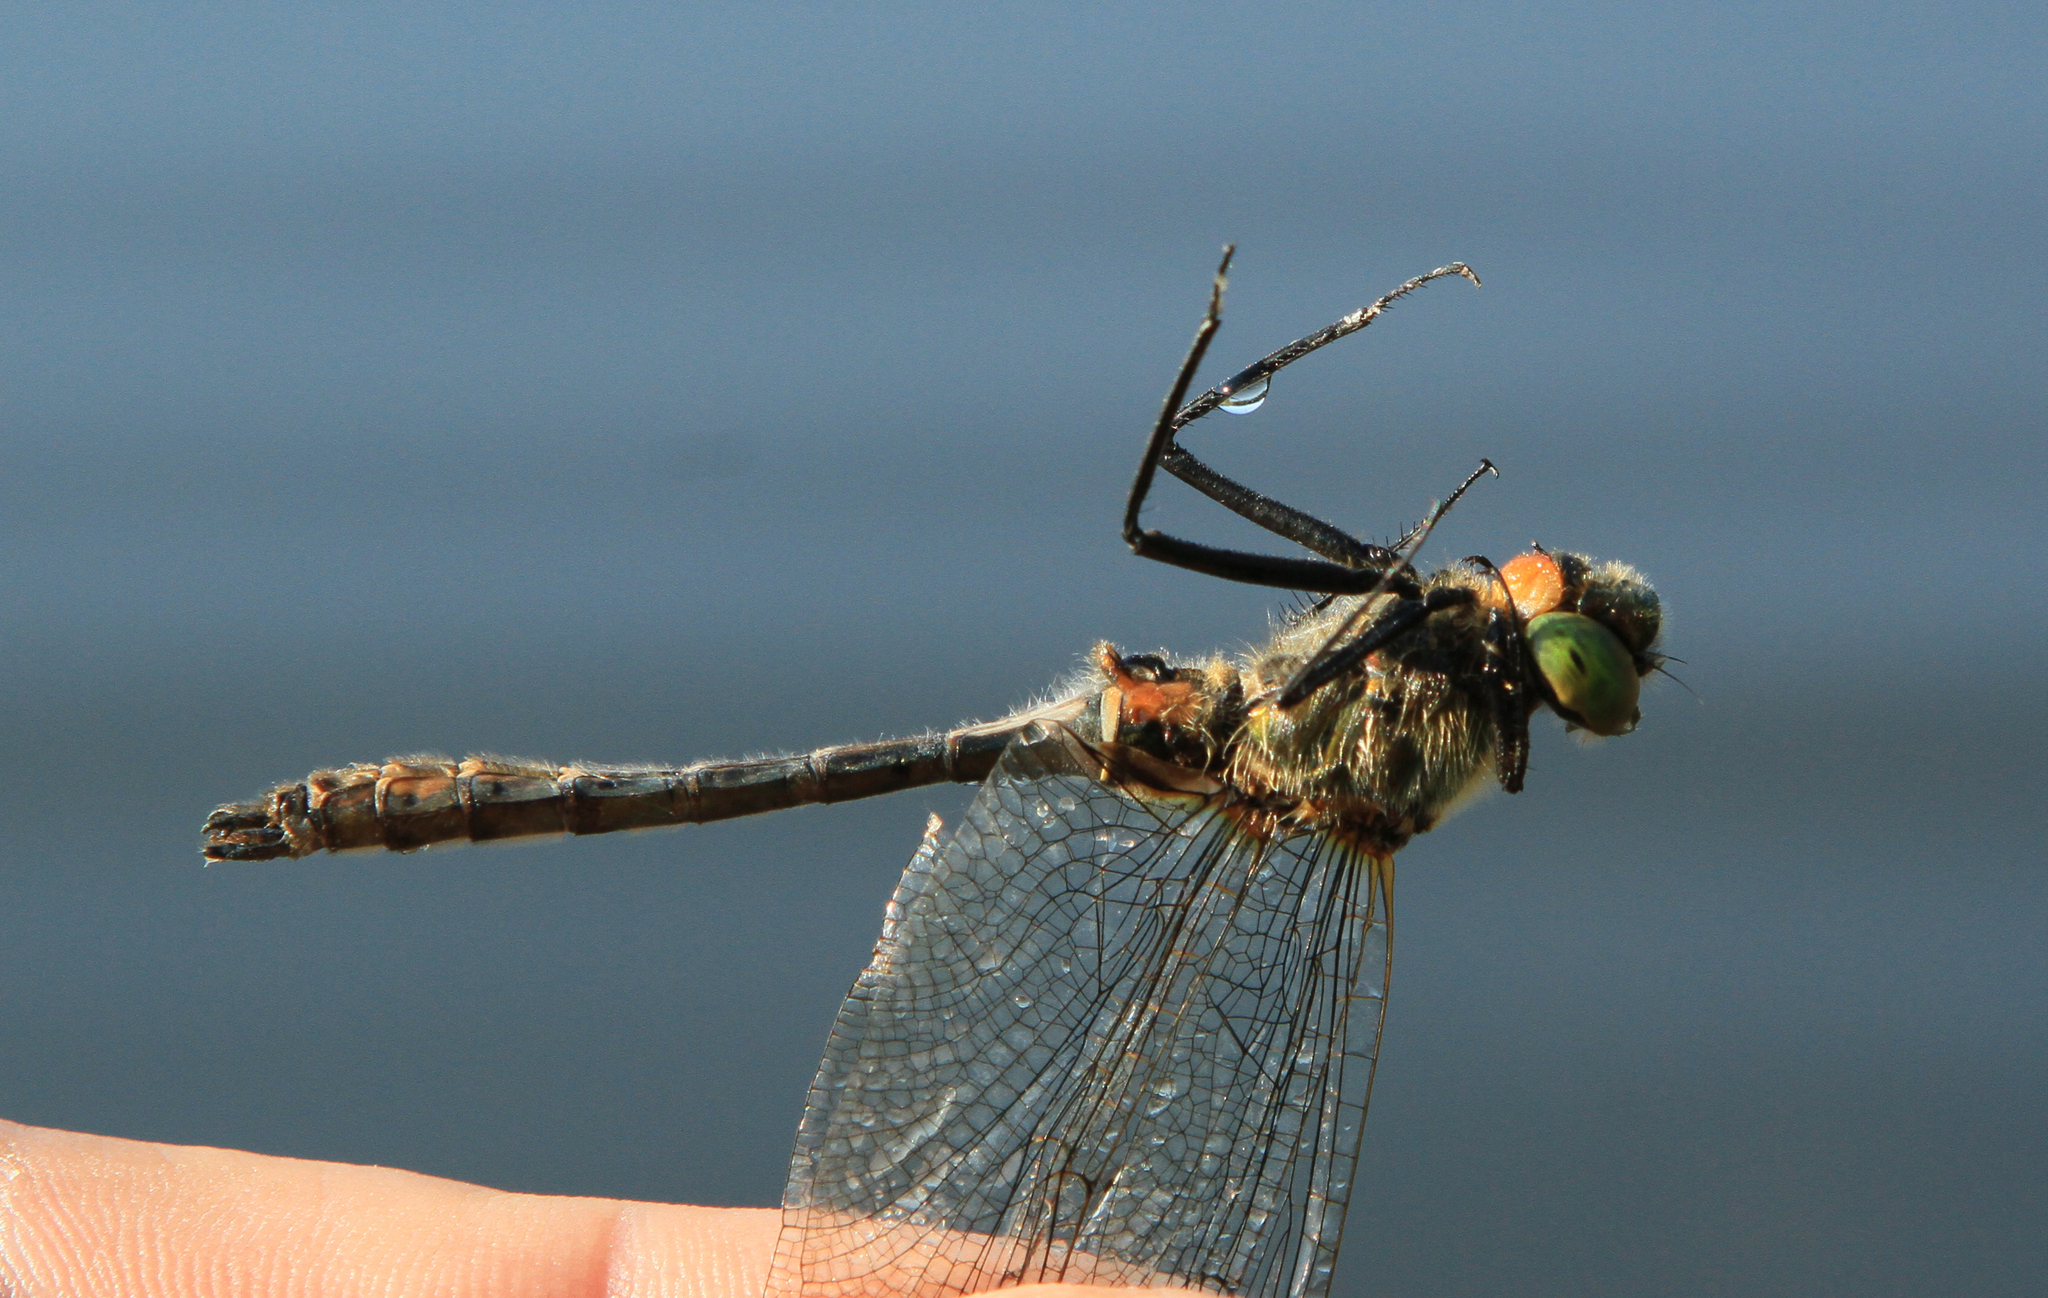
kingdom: Animalia
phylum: Arthropoda
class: Insecta
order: Odonata
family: Corduliidae
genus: Cordulia
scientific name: Cordulia aenea
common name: Downy emerald
